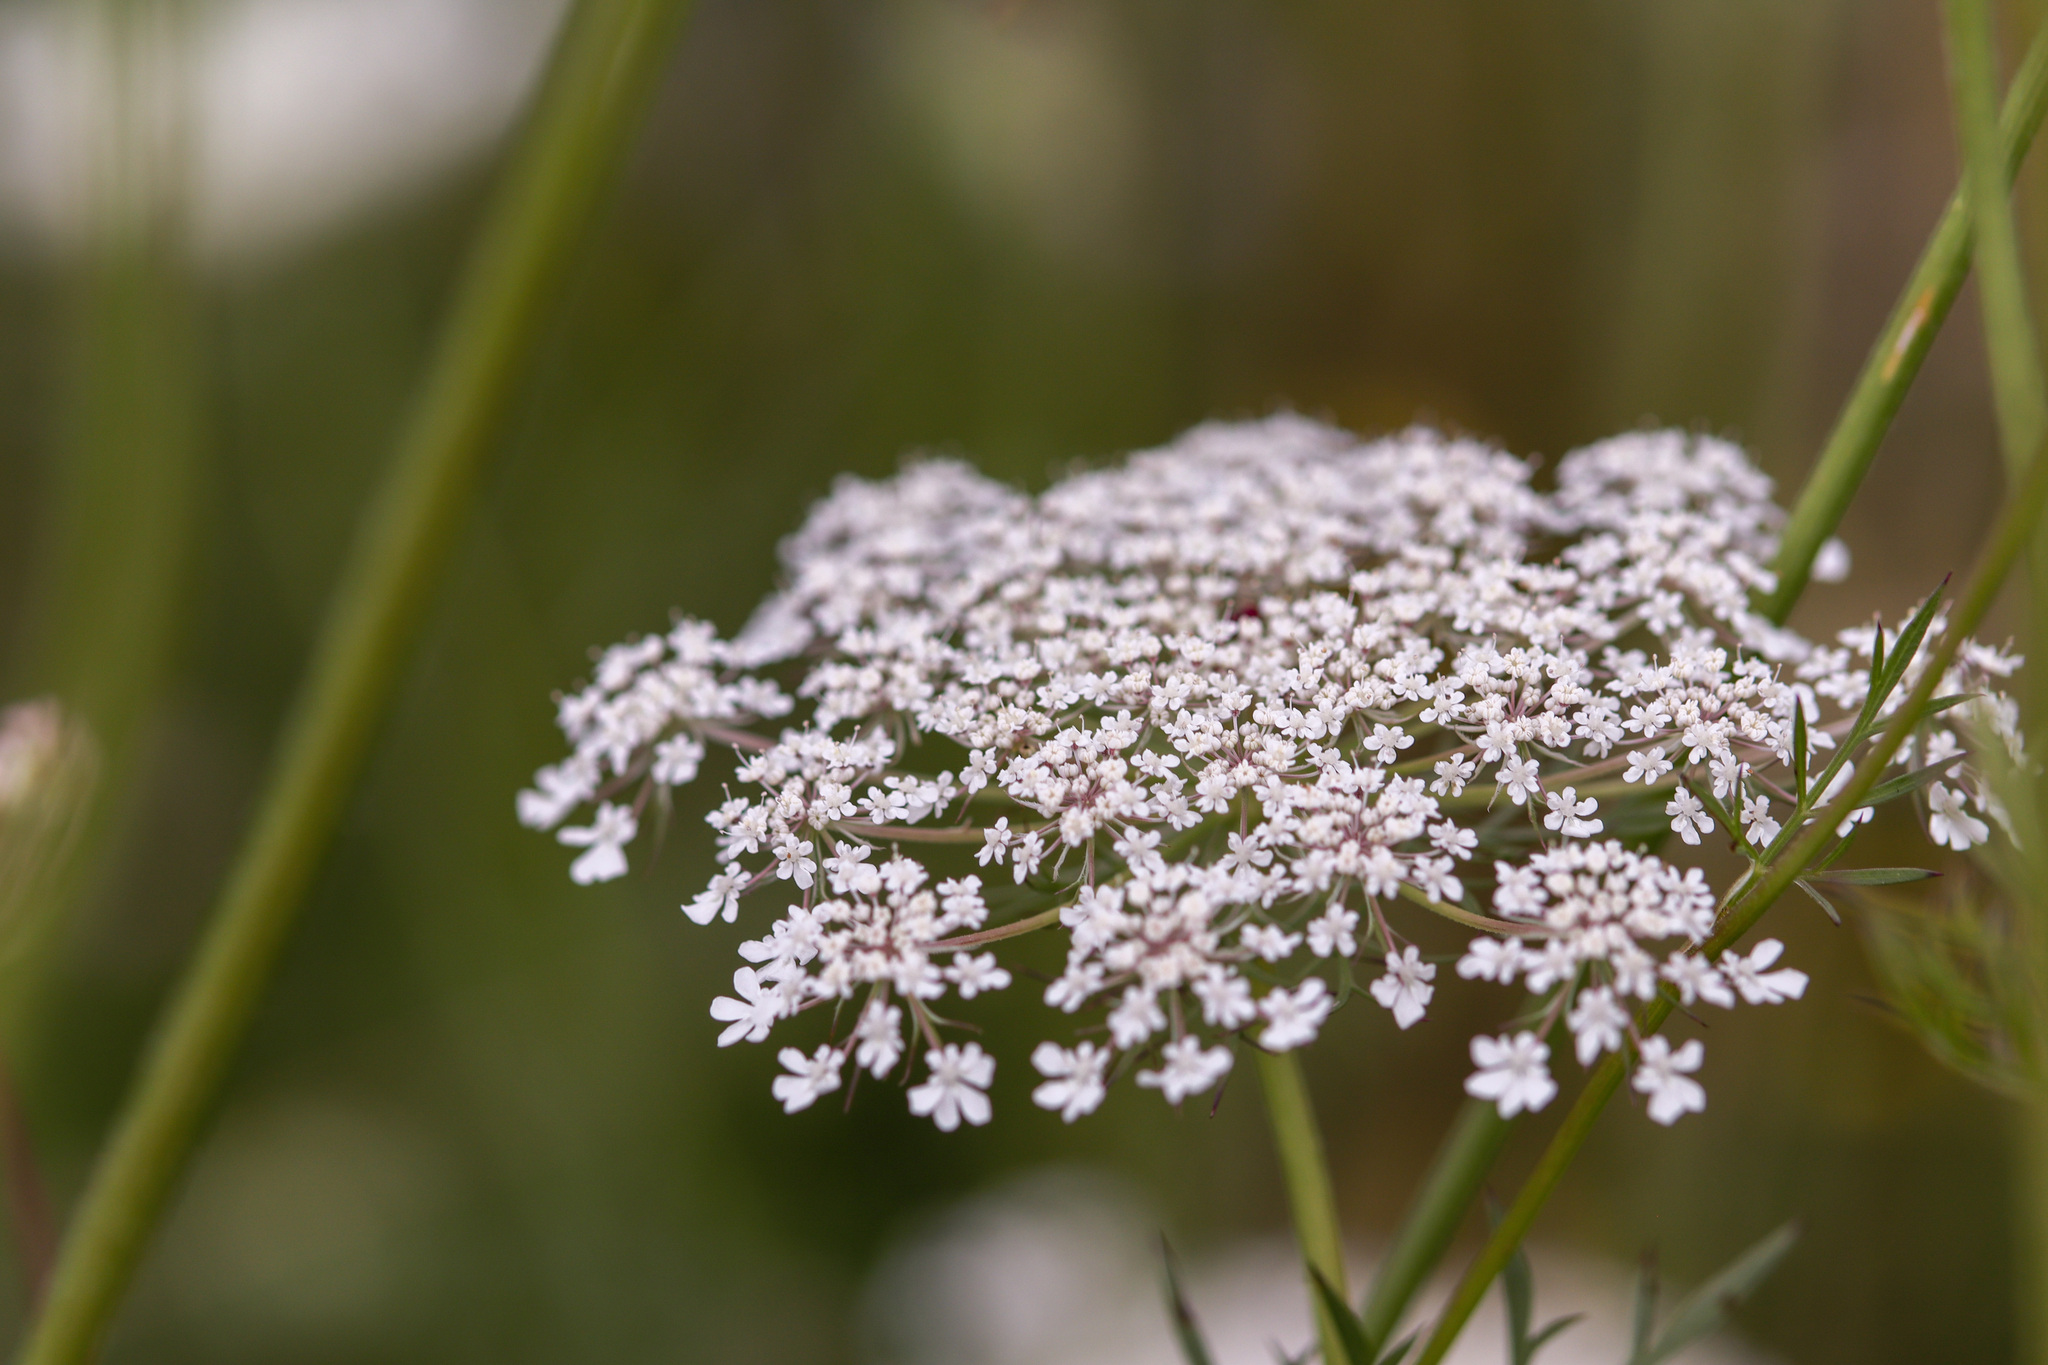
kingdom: Plantae
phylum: Tracheophyta
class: Magnoliopsida
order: Apiales
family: Apiaceae
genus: Daucus
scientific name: Daucus carota
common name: Wild carrot
